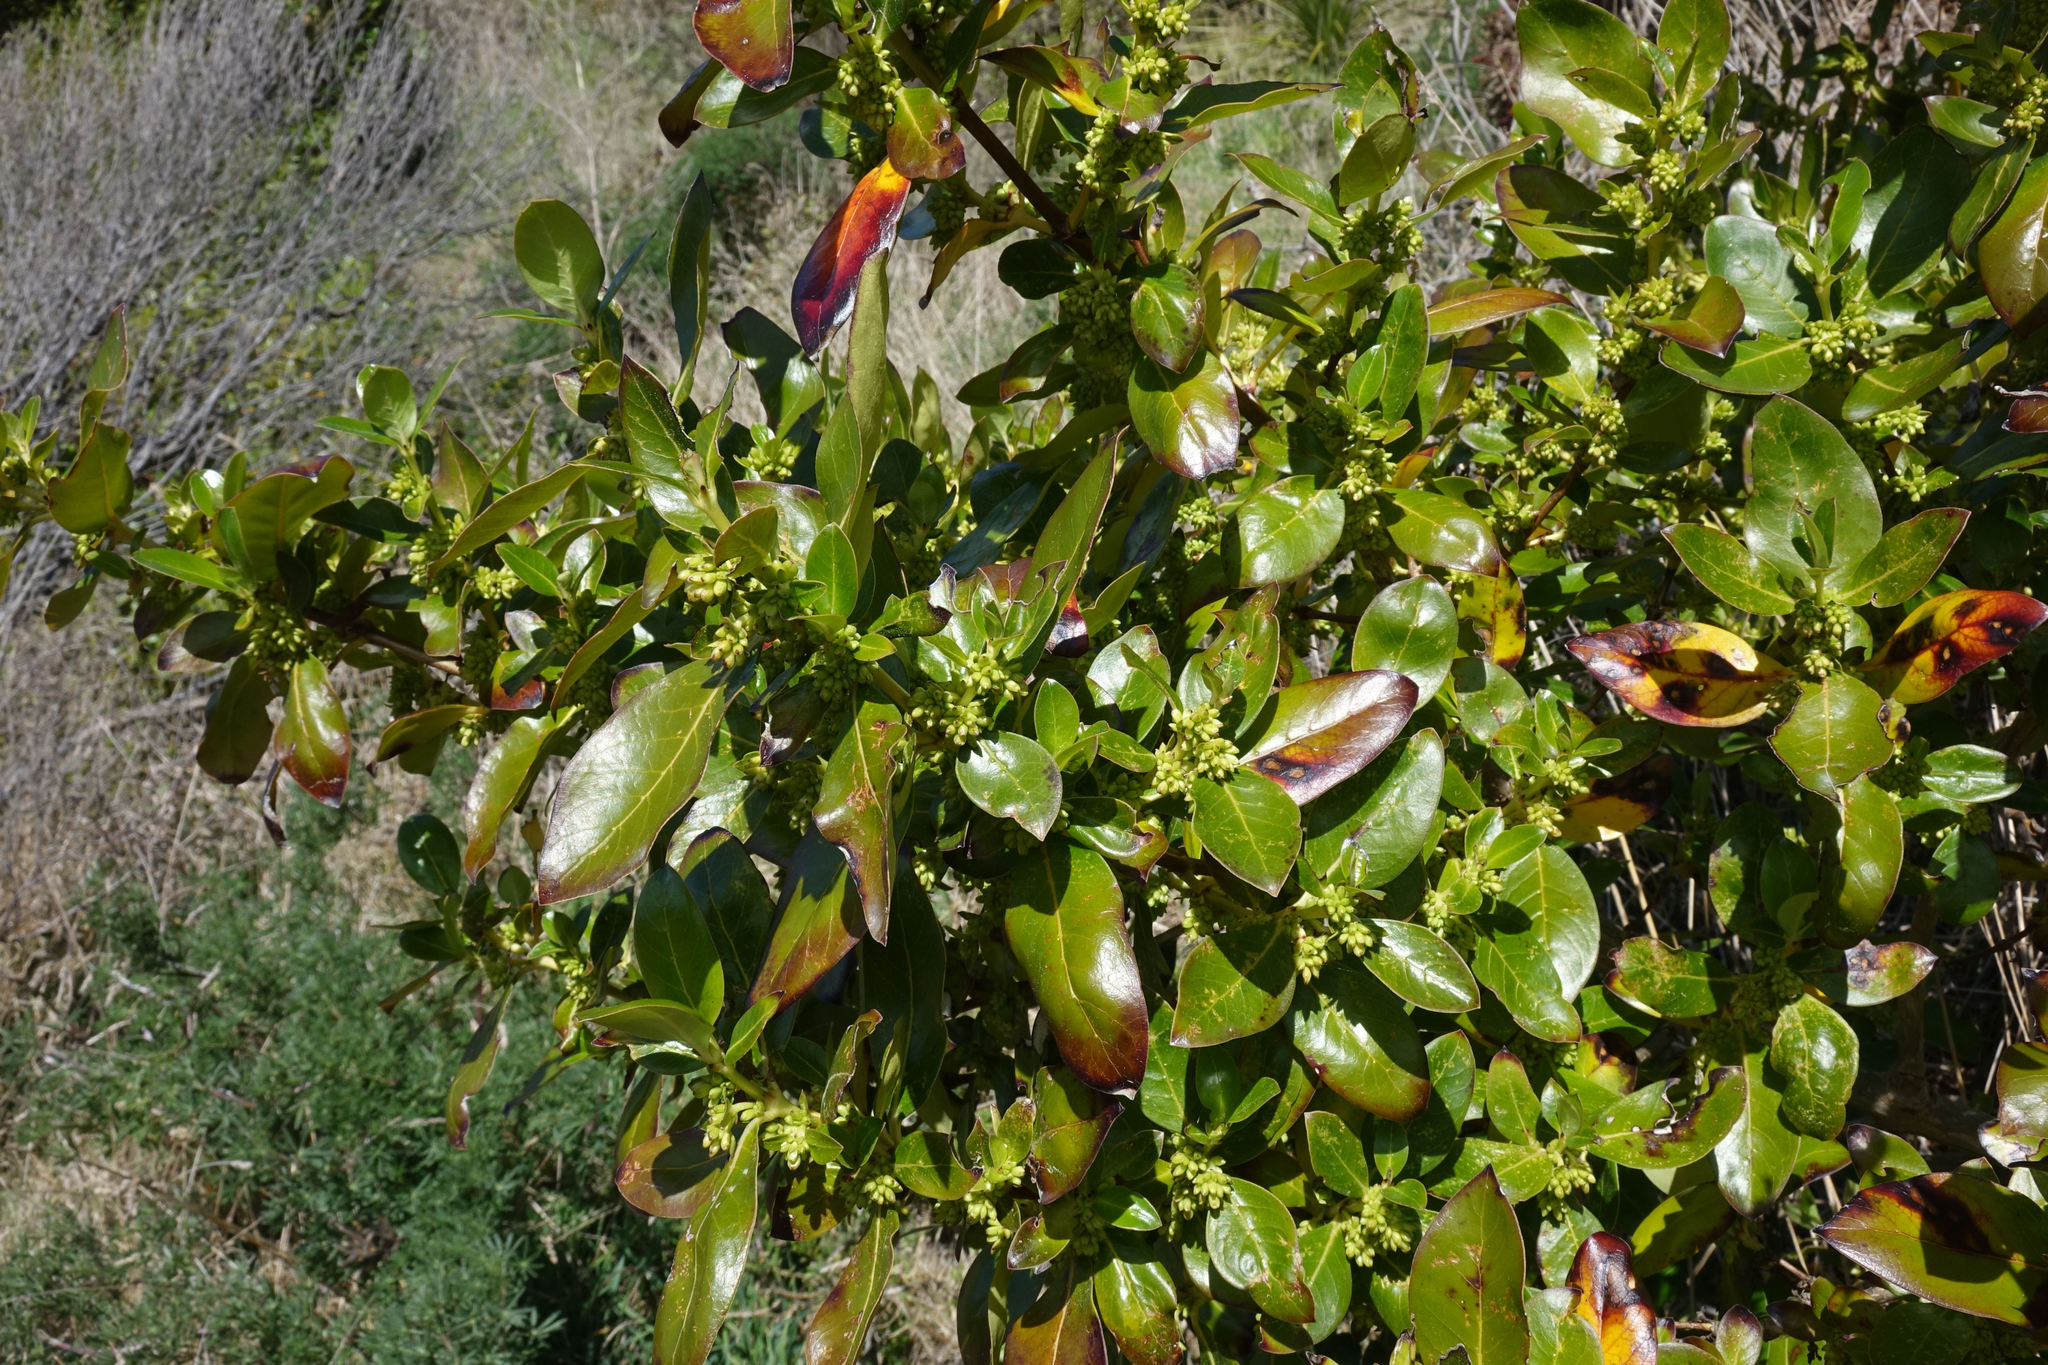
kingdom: Plantae
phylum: Tracheophyta
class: Magnoliopsida
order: Gentianales
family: Rubiaceae
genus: Coprosma
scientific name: Coprosma robusta
